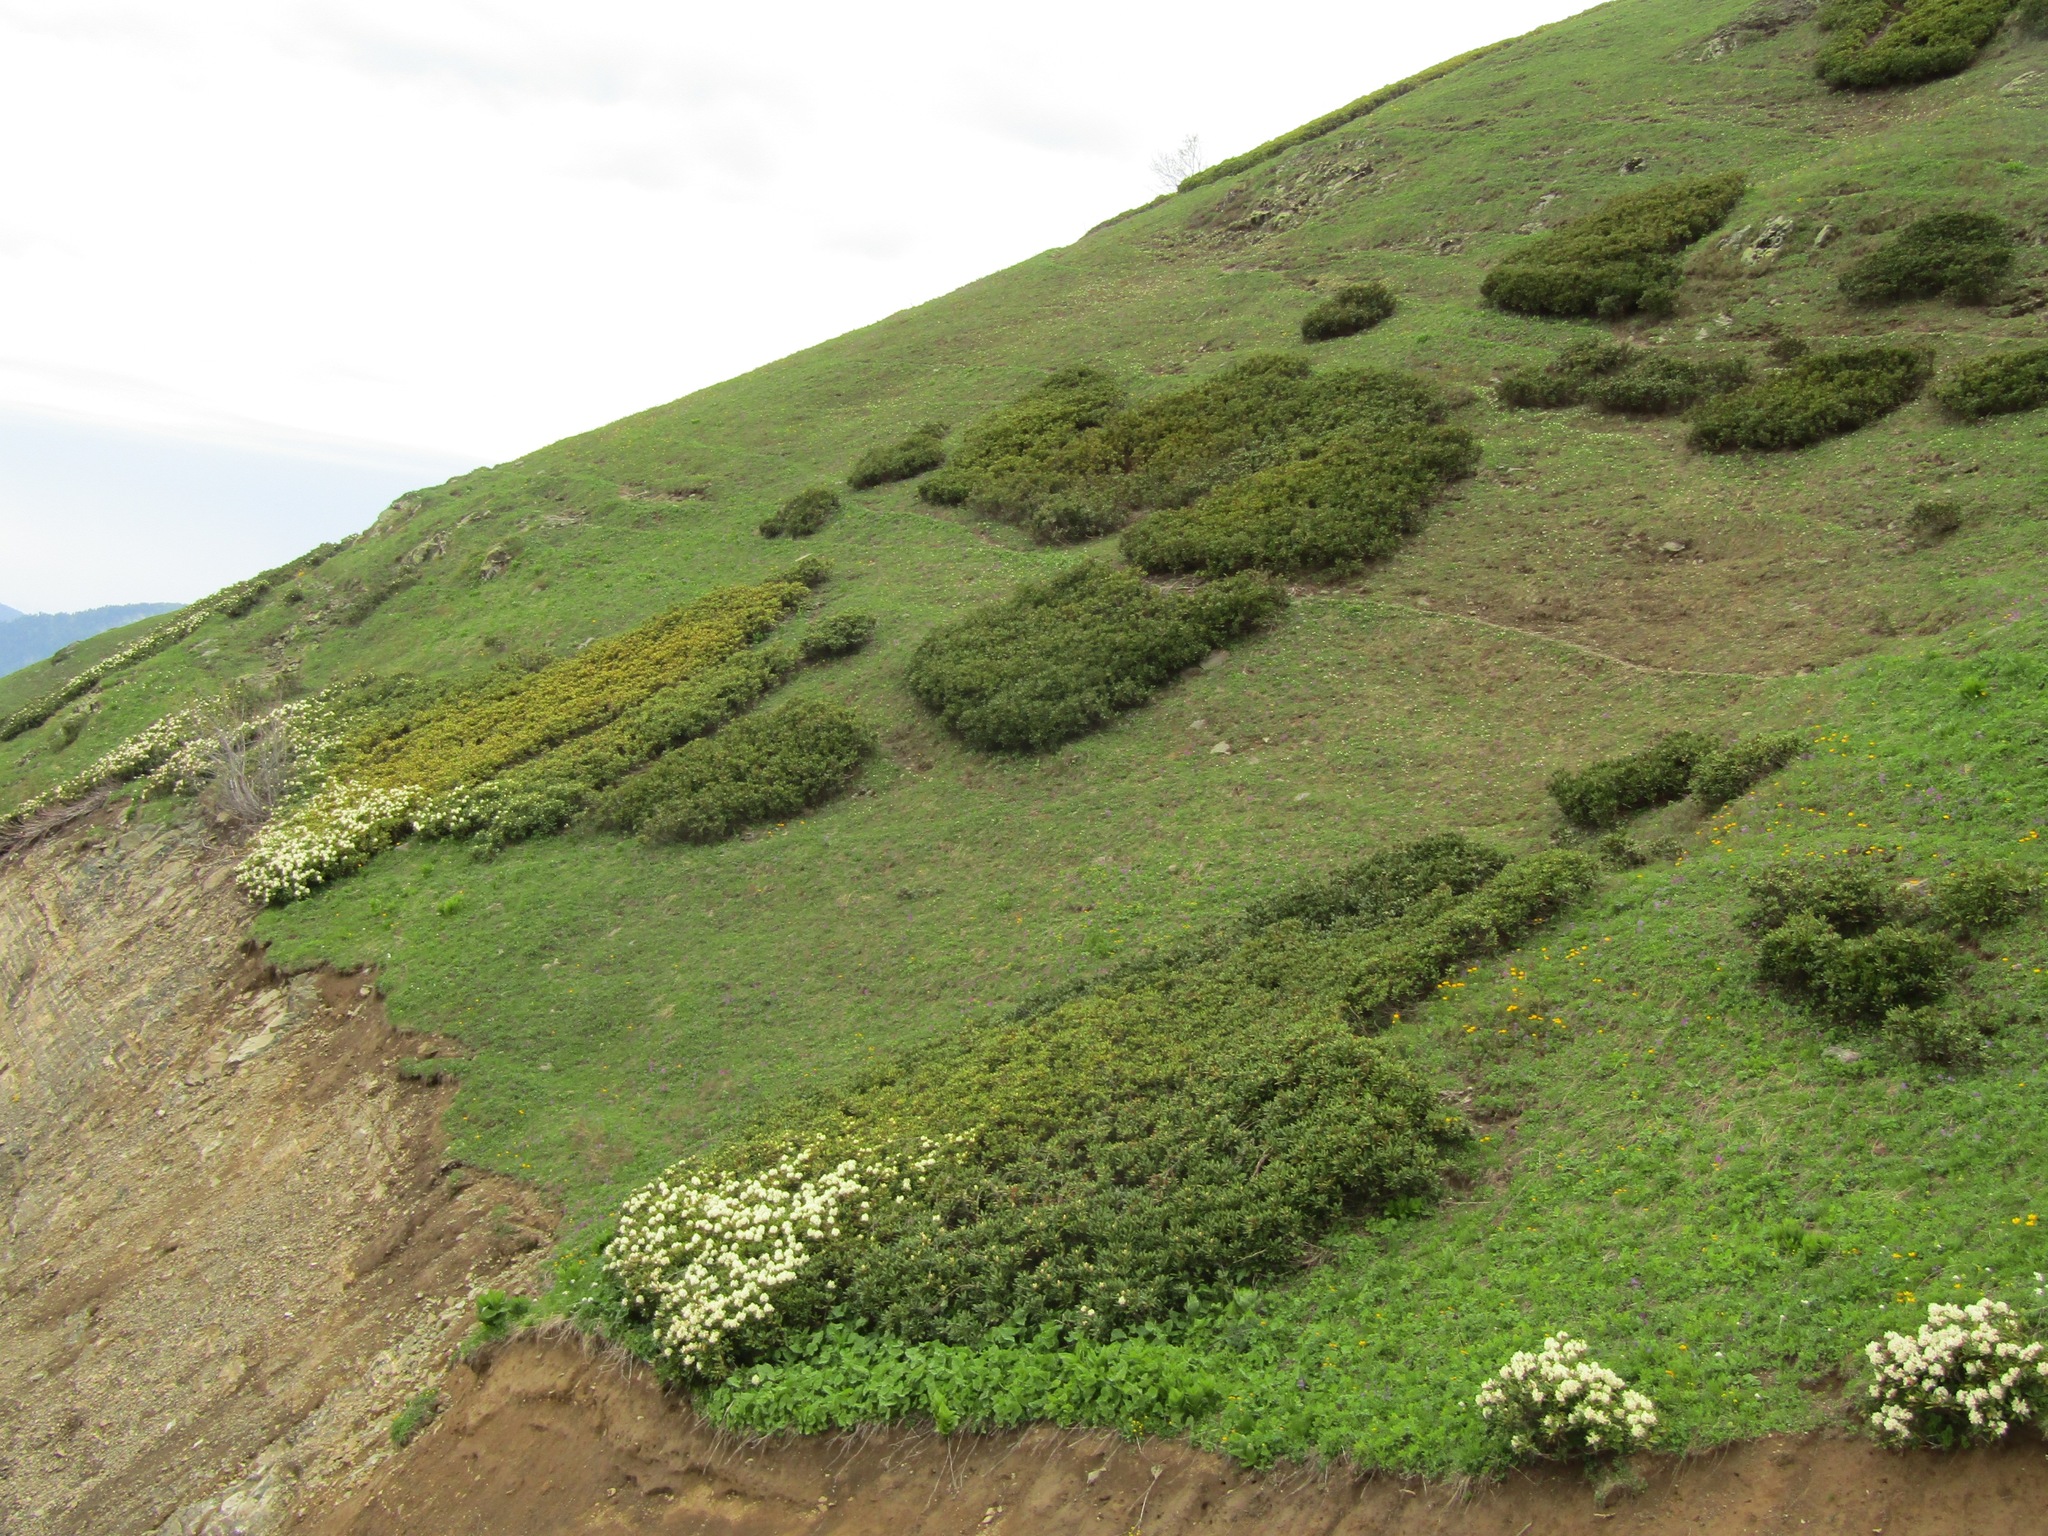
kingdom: Plantae
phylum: Tracheophyta
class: Magnoliopsida
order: Ericales
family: Ericaceae
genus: Rhododendron
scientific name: Rhododendron caucasicum
